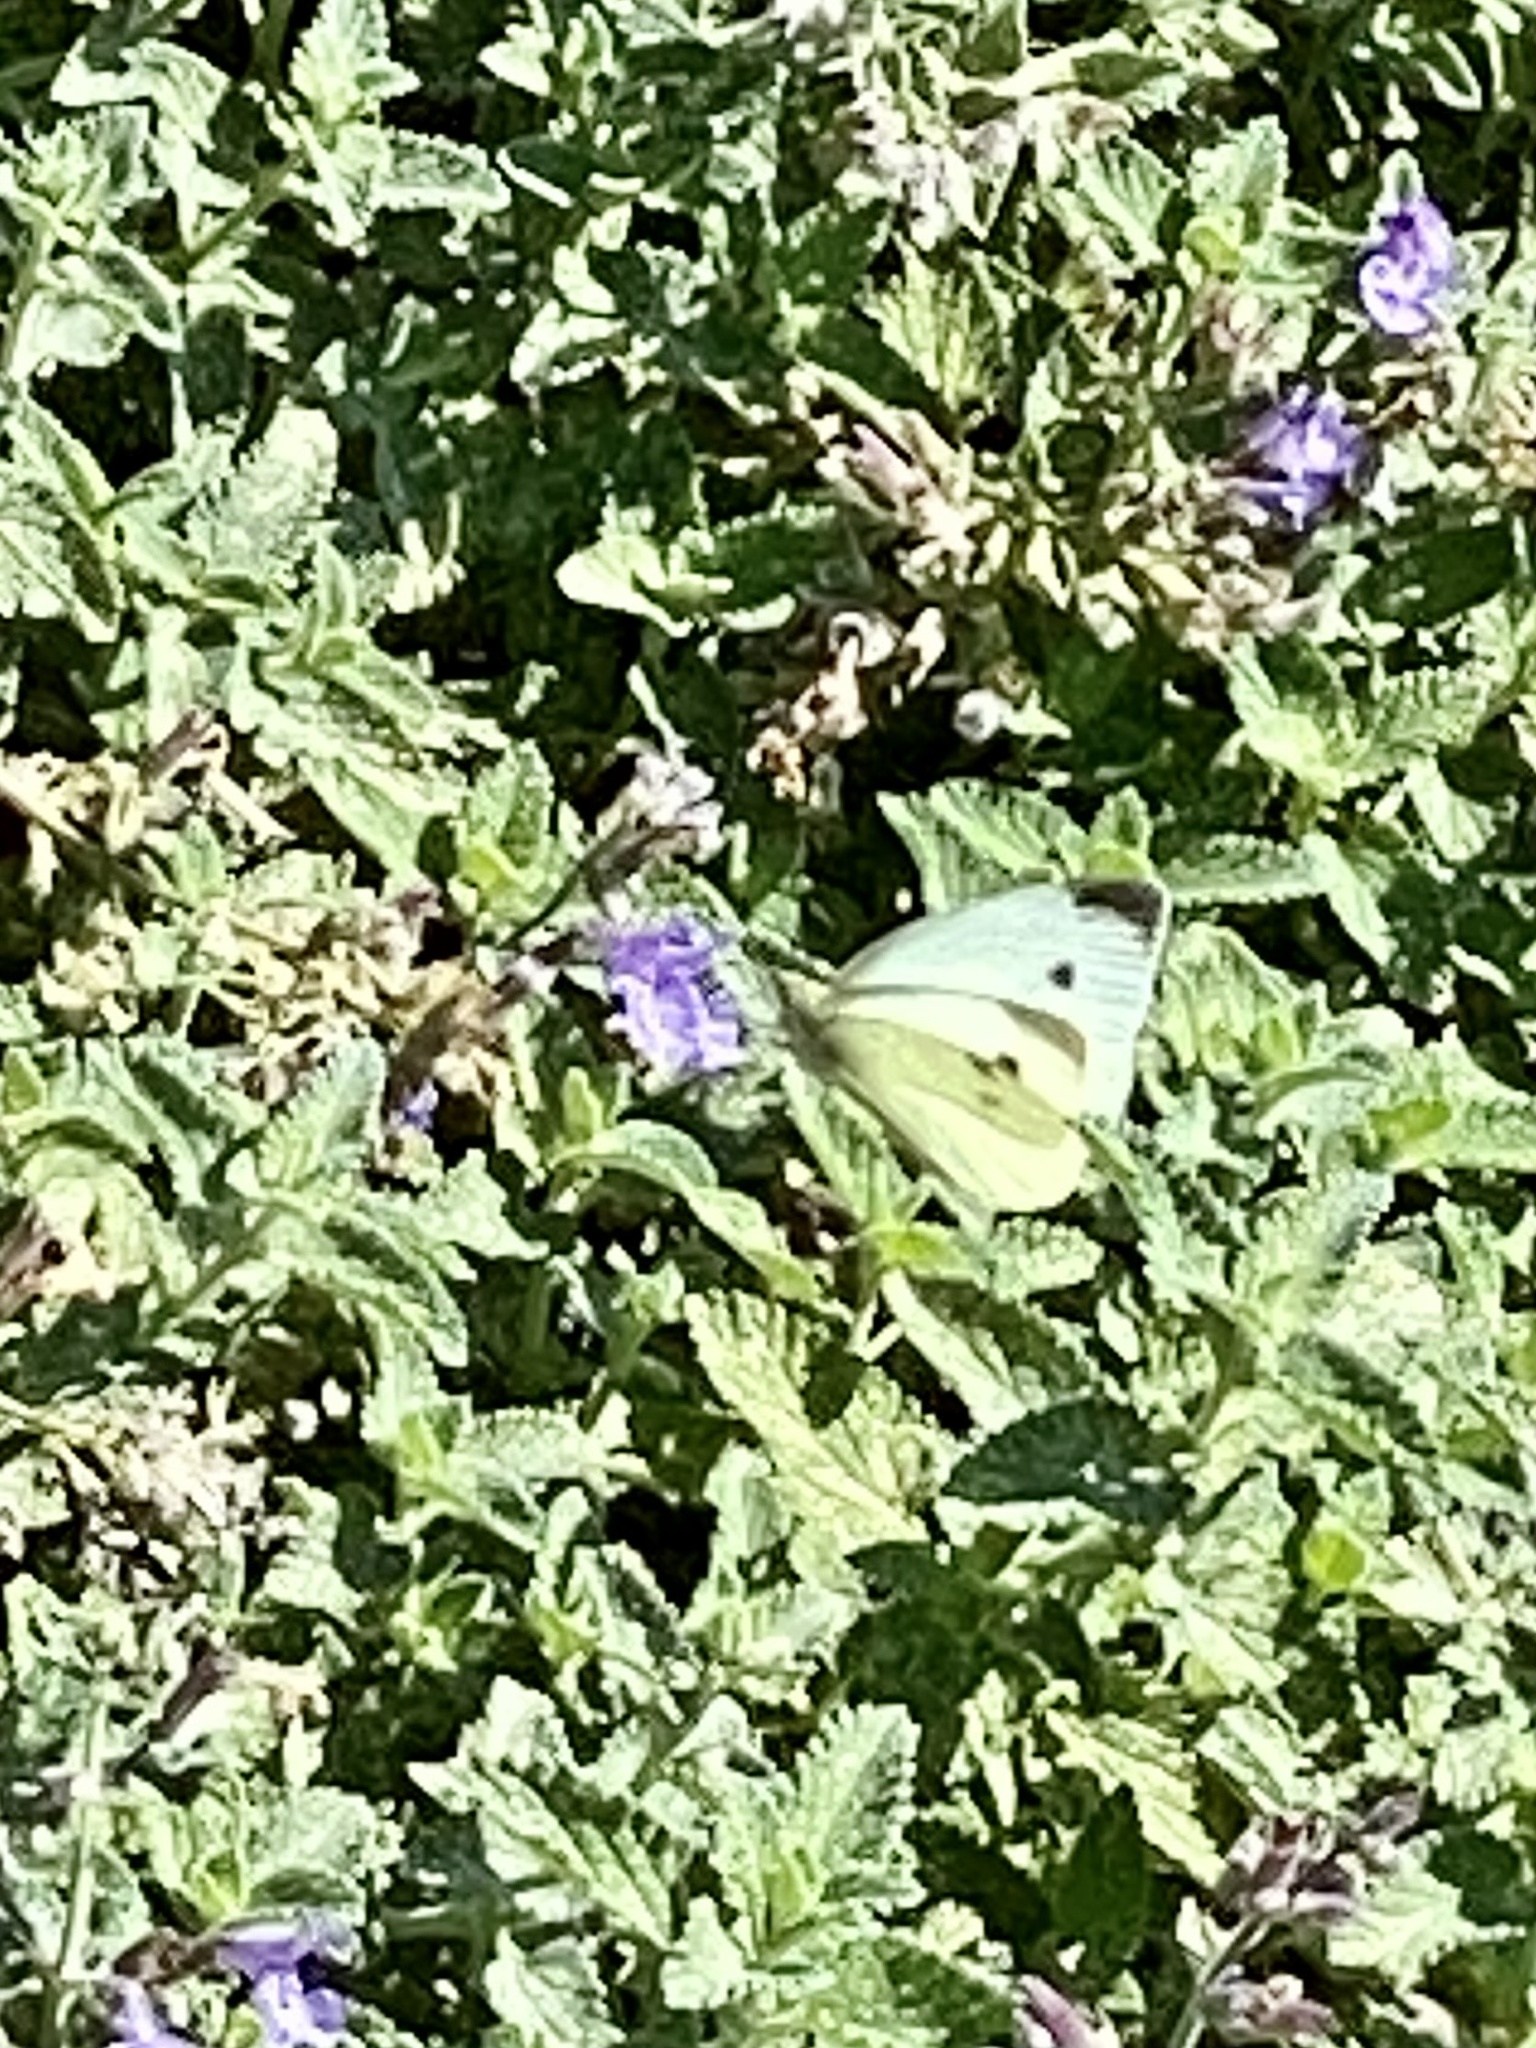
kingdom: Animalia
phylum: Arthropoda
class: Insecta
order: Lepidoptera
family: Pieridae
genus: Pieris
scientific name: Pieris rapae
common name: Small white
